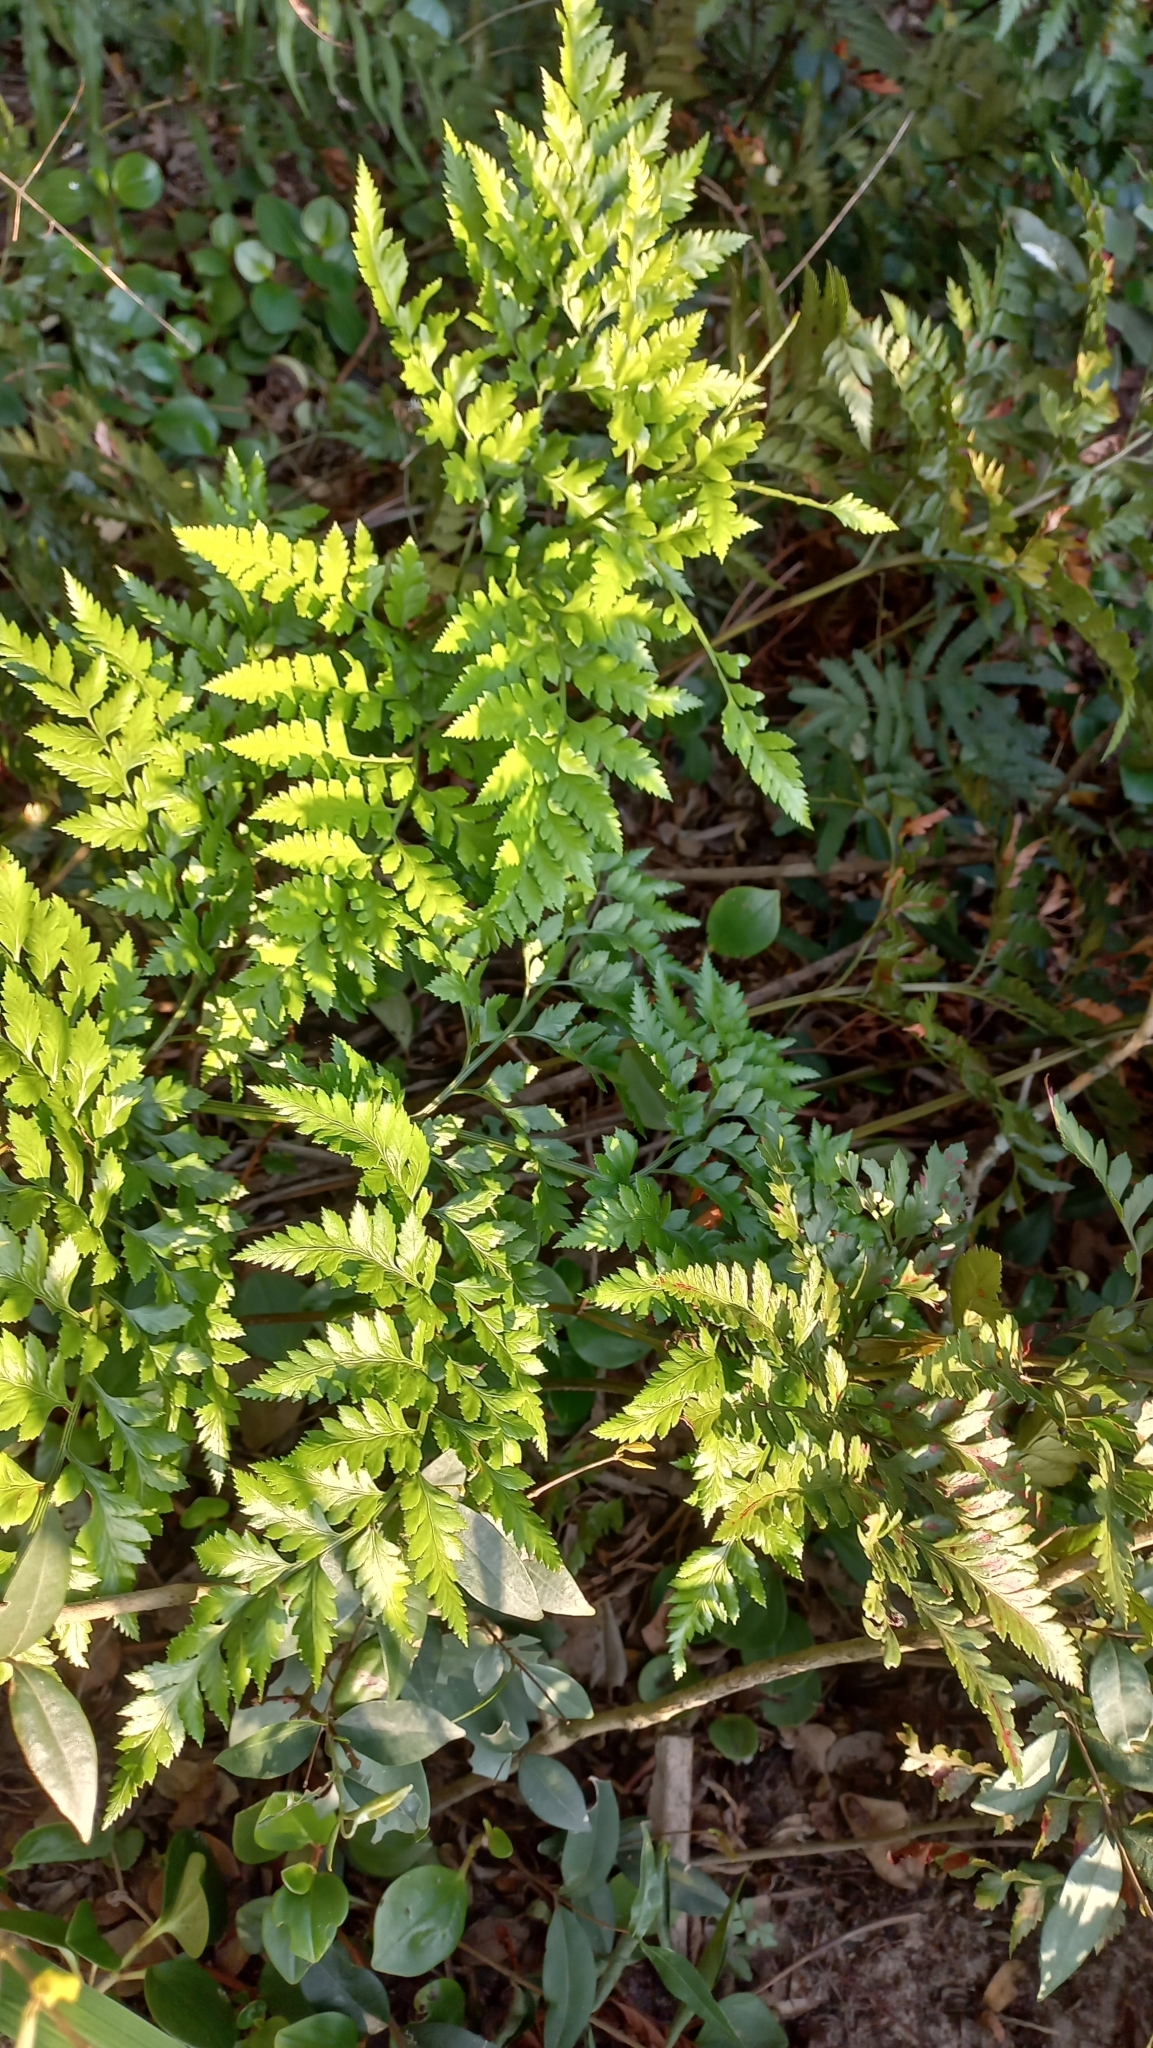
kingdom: Plantae
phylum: Tracheophyta
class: Polypodiopsida
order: Polypodiales
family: Dryopteridaceae
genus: Rumohra
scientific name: Rumohra adiantiformis
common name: Leather fern
